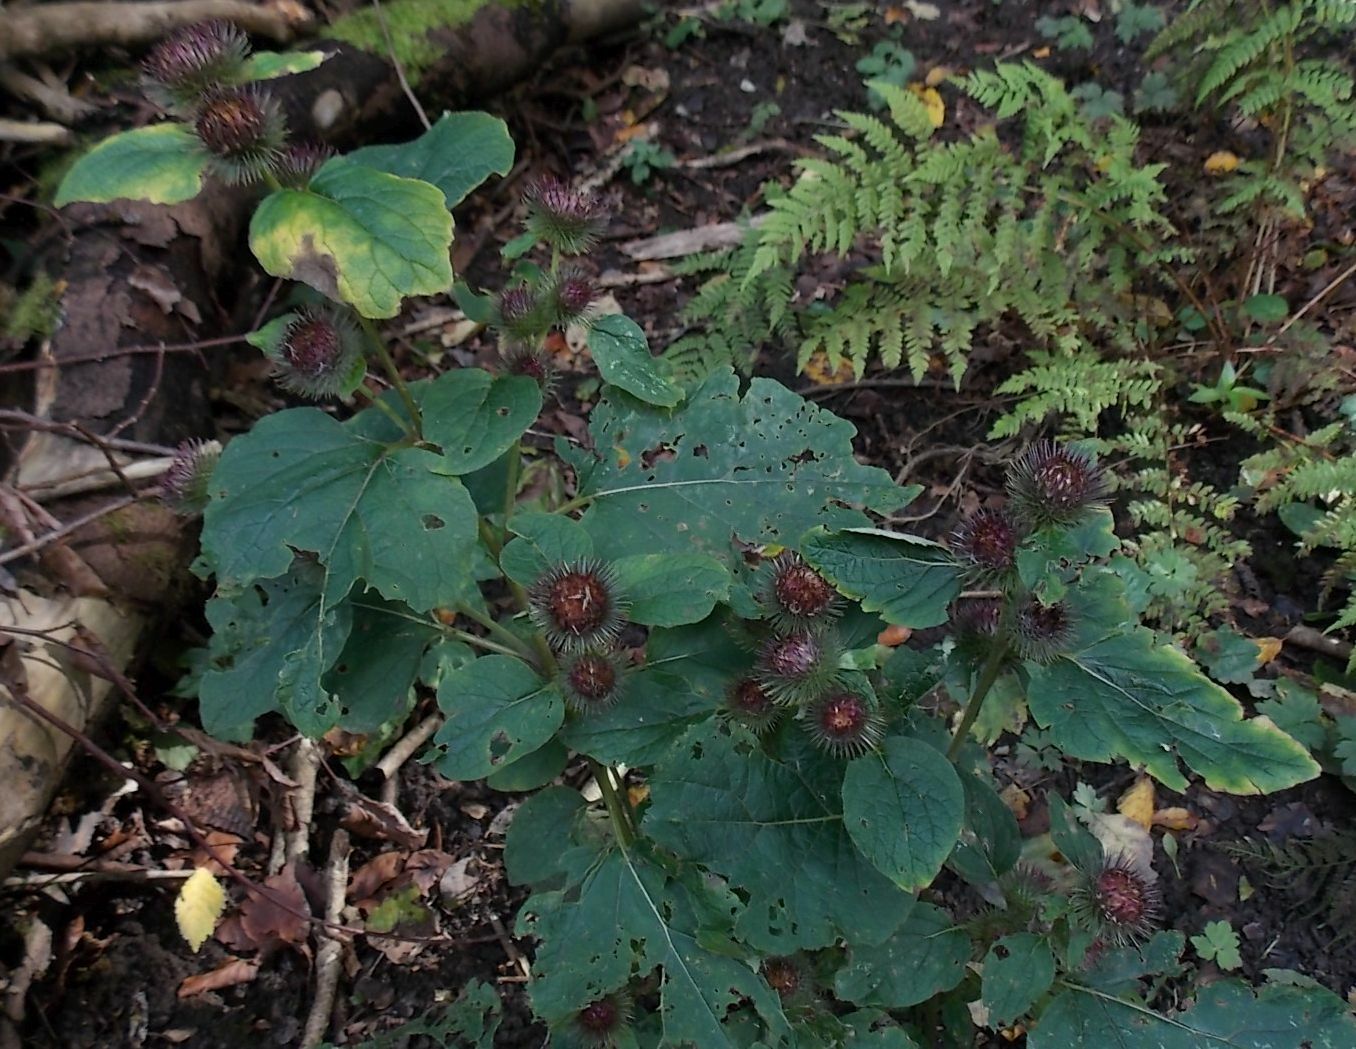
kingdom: Plantae
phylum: Tracheophyta
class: Magnoliopsida
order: Asterales
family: Asteraceae
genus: Arctium
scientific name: Arctium minus
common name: Lesser burdock
